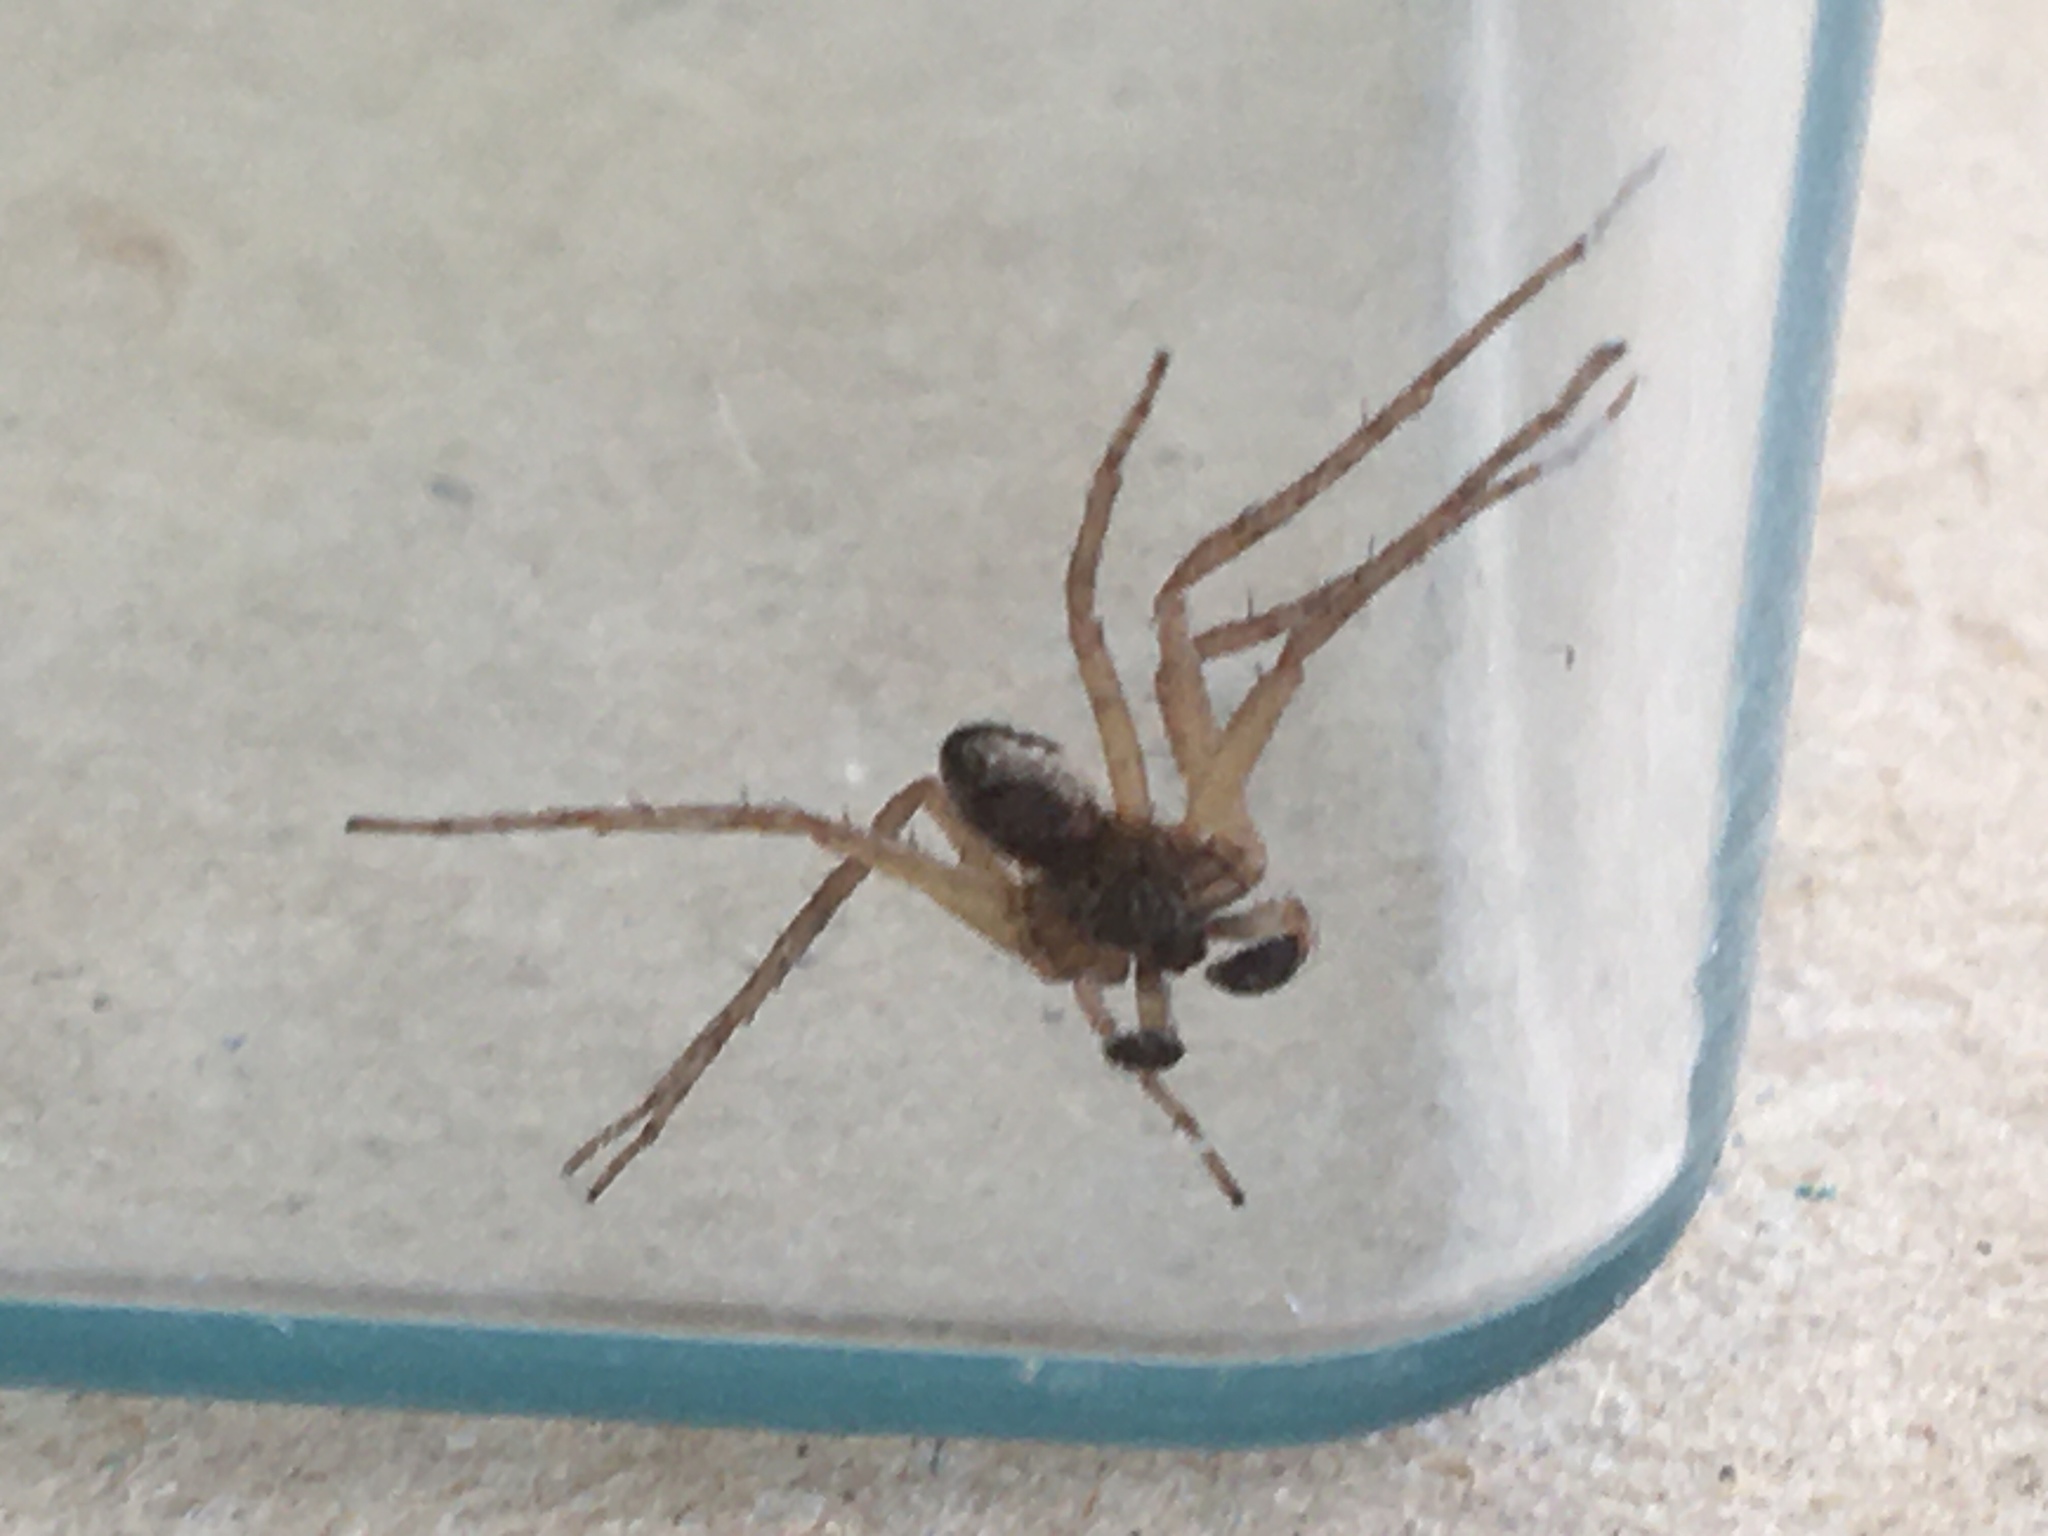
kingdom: Animalia
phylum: Arthropoda
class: Arachnida
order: Araneae
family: Philodromidae
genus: Philodromus
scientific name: Philodromus dispar
